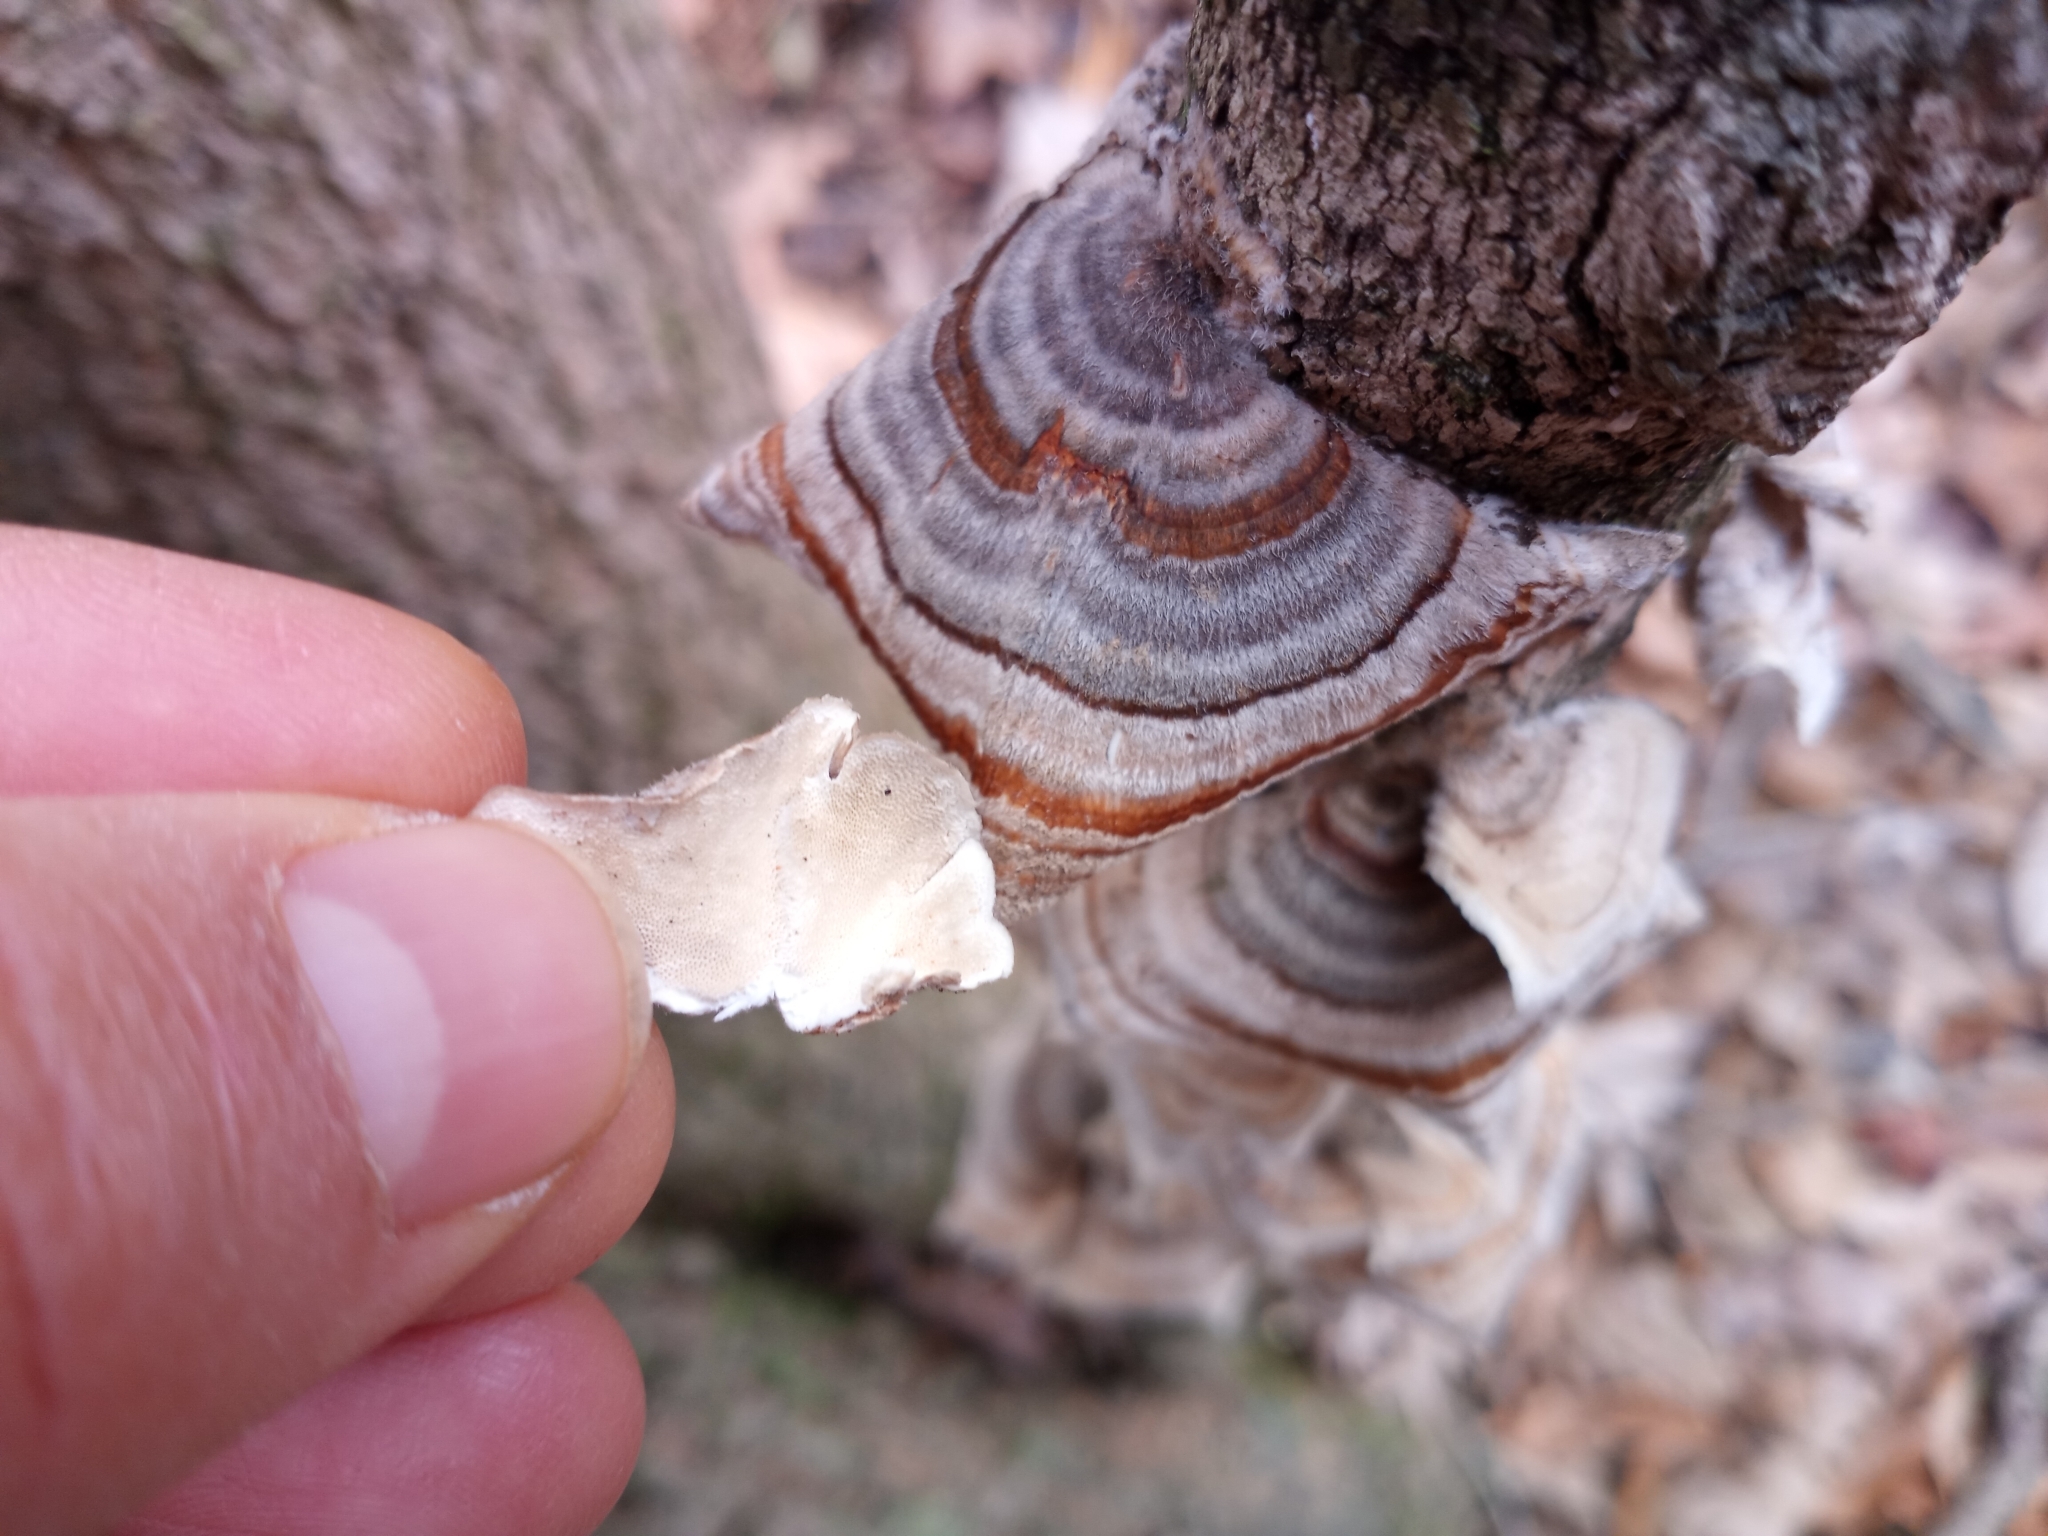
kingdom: Fungi
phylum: Basidiomycota
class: Agaricomycetes
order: Polyporales
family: Polyporaceae
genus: Trametes
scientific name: Trametes versicolor
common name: Turkeytail
